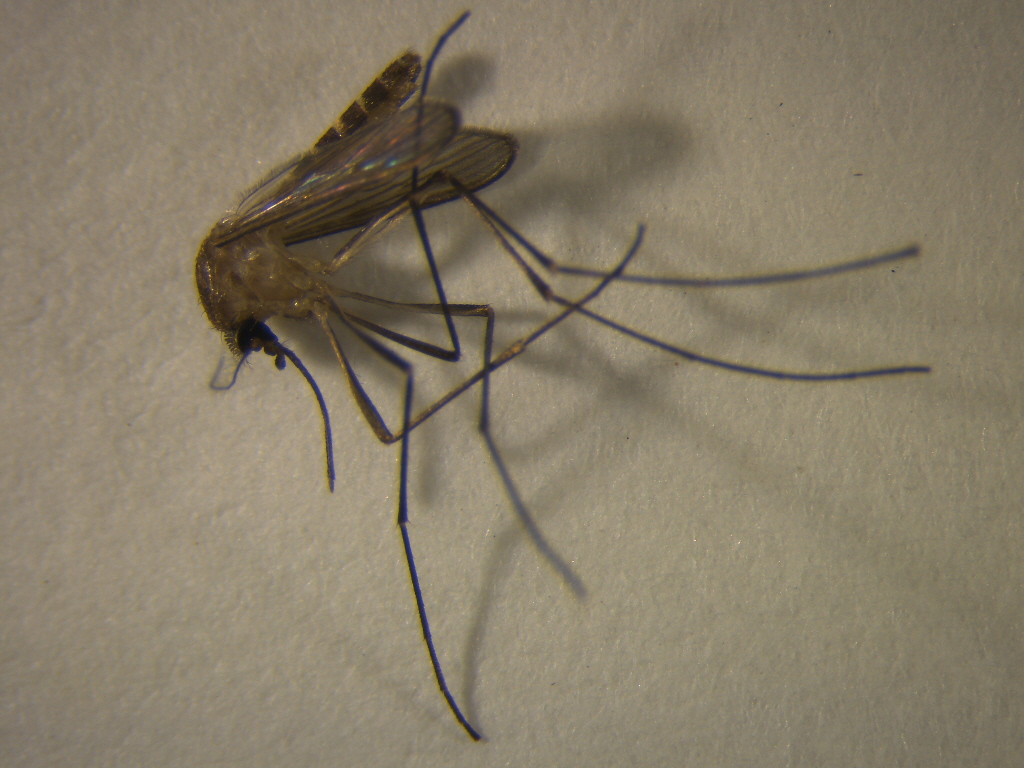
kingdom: Animalia
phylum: Arthropoda
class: Insecta
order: Diptera
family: Culicidae
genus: Culex
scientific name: Culex pervigilans
